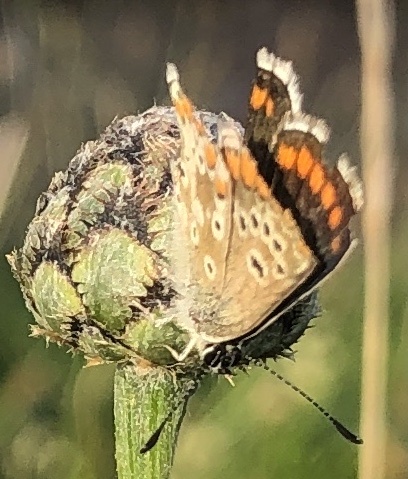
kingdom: Animalia
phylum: Arthropoda
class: Insecta
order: Lepidoptera
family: Lycaenidae
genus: Aricia
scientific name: Aricia agestis
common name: Brown argus
